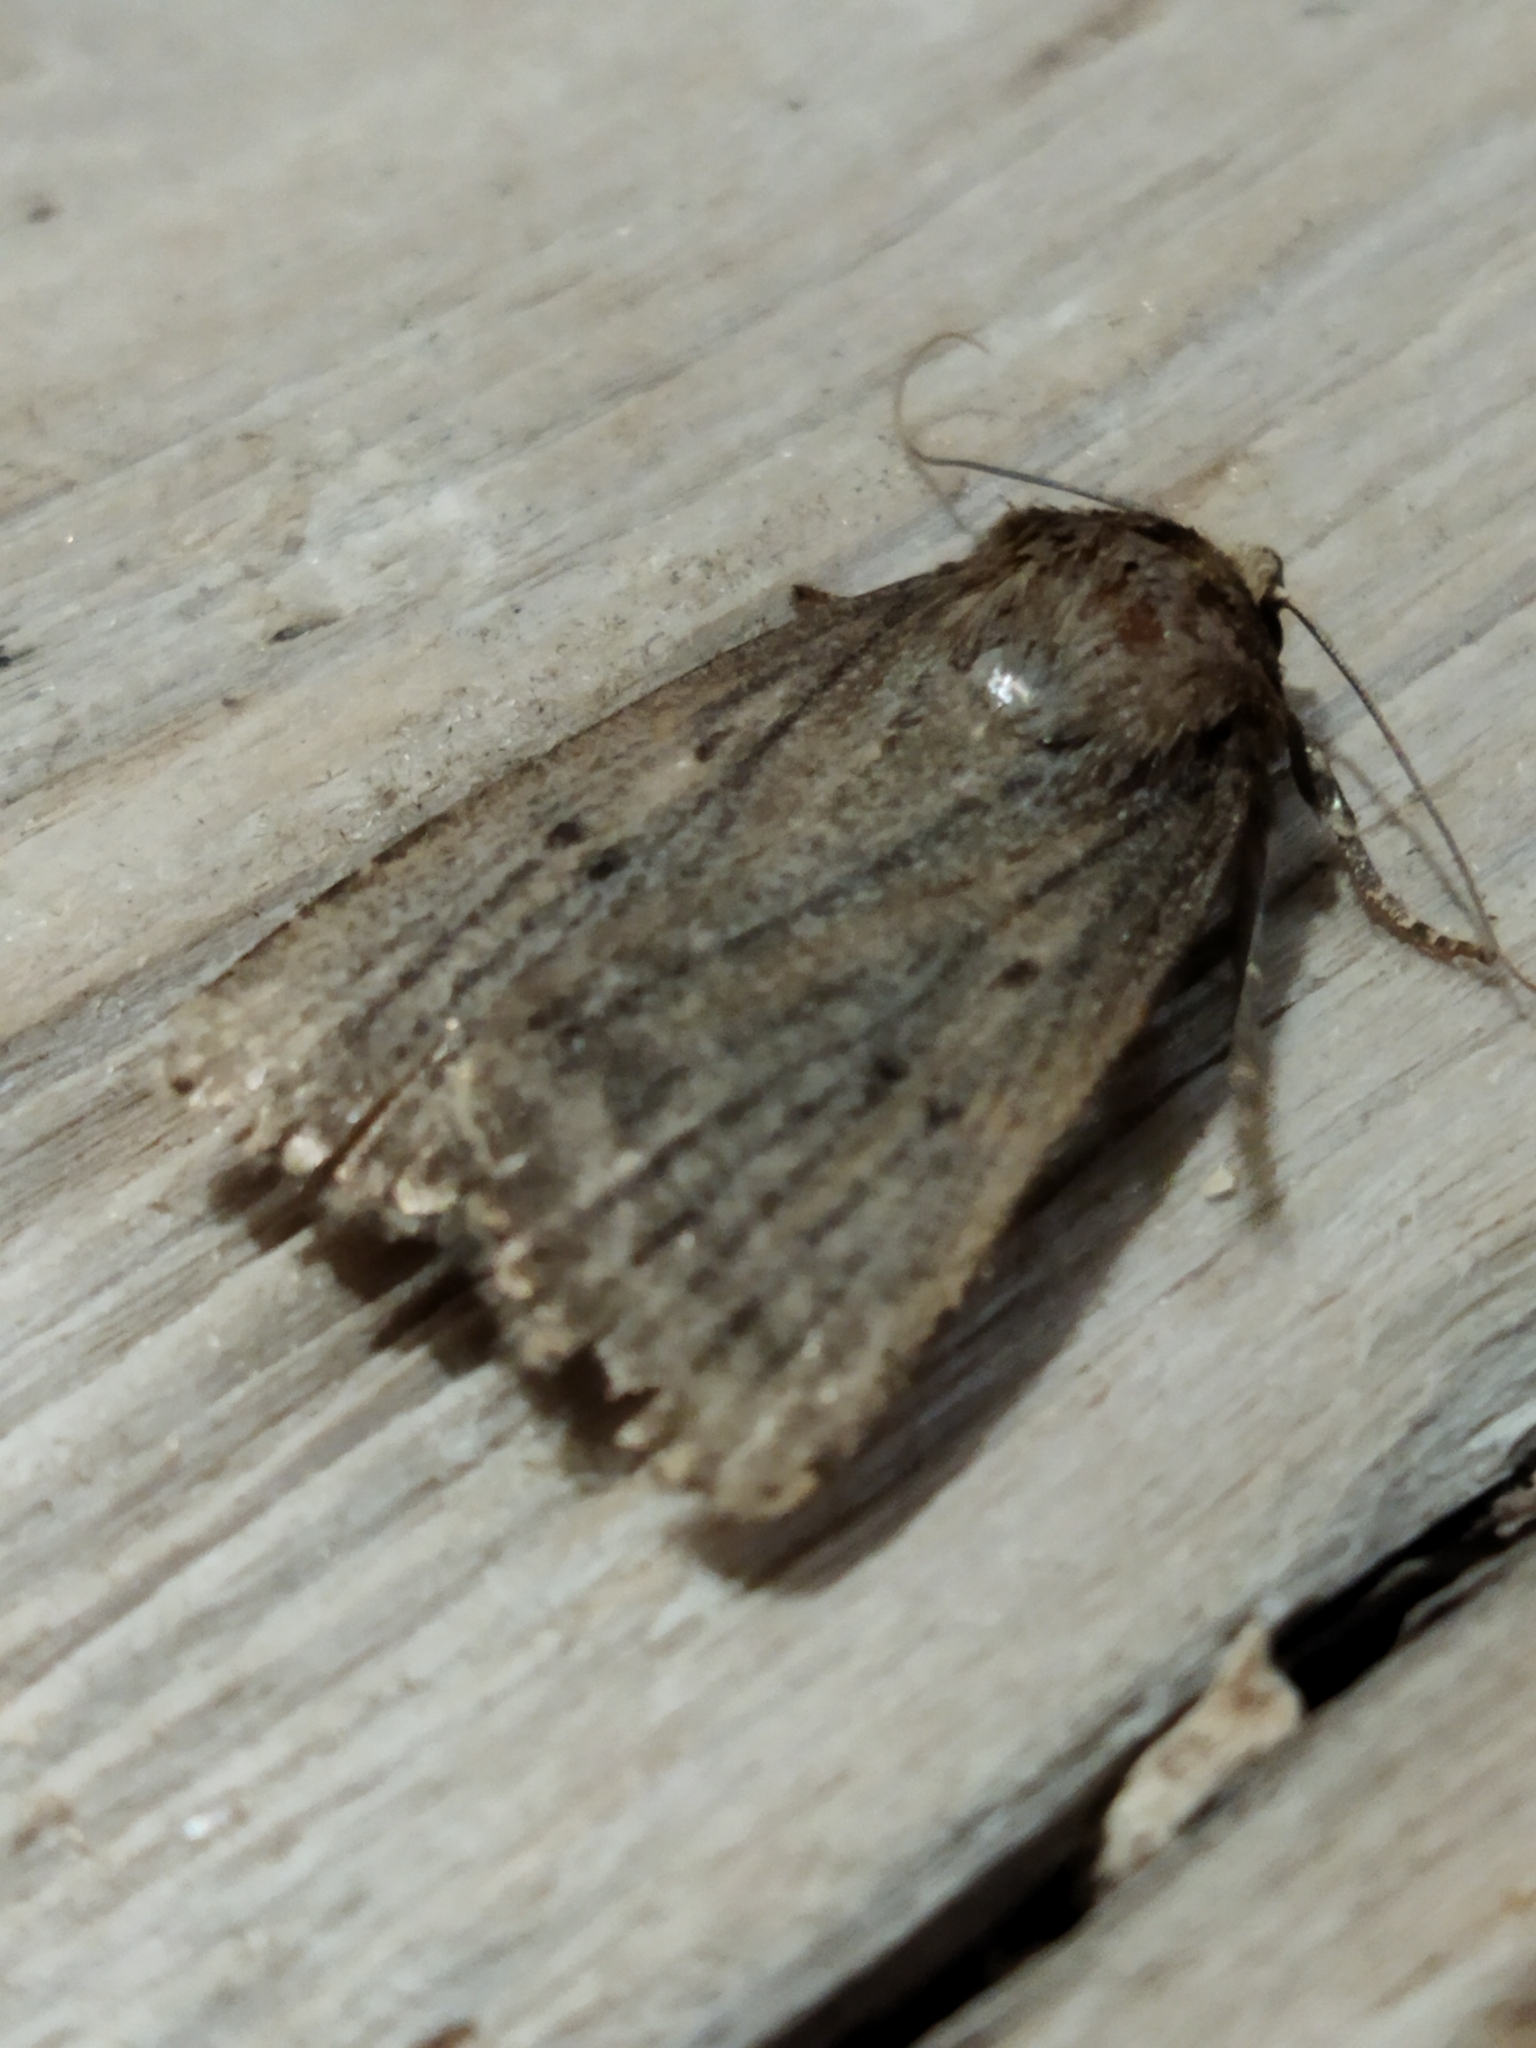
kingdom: Animalia
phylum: Arthropoda
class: Insecta
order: Lepidoptera
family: Noctuidae
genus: Amphipyra
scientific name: Amphipyra tragopoginis
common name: Mouse moth
